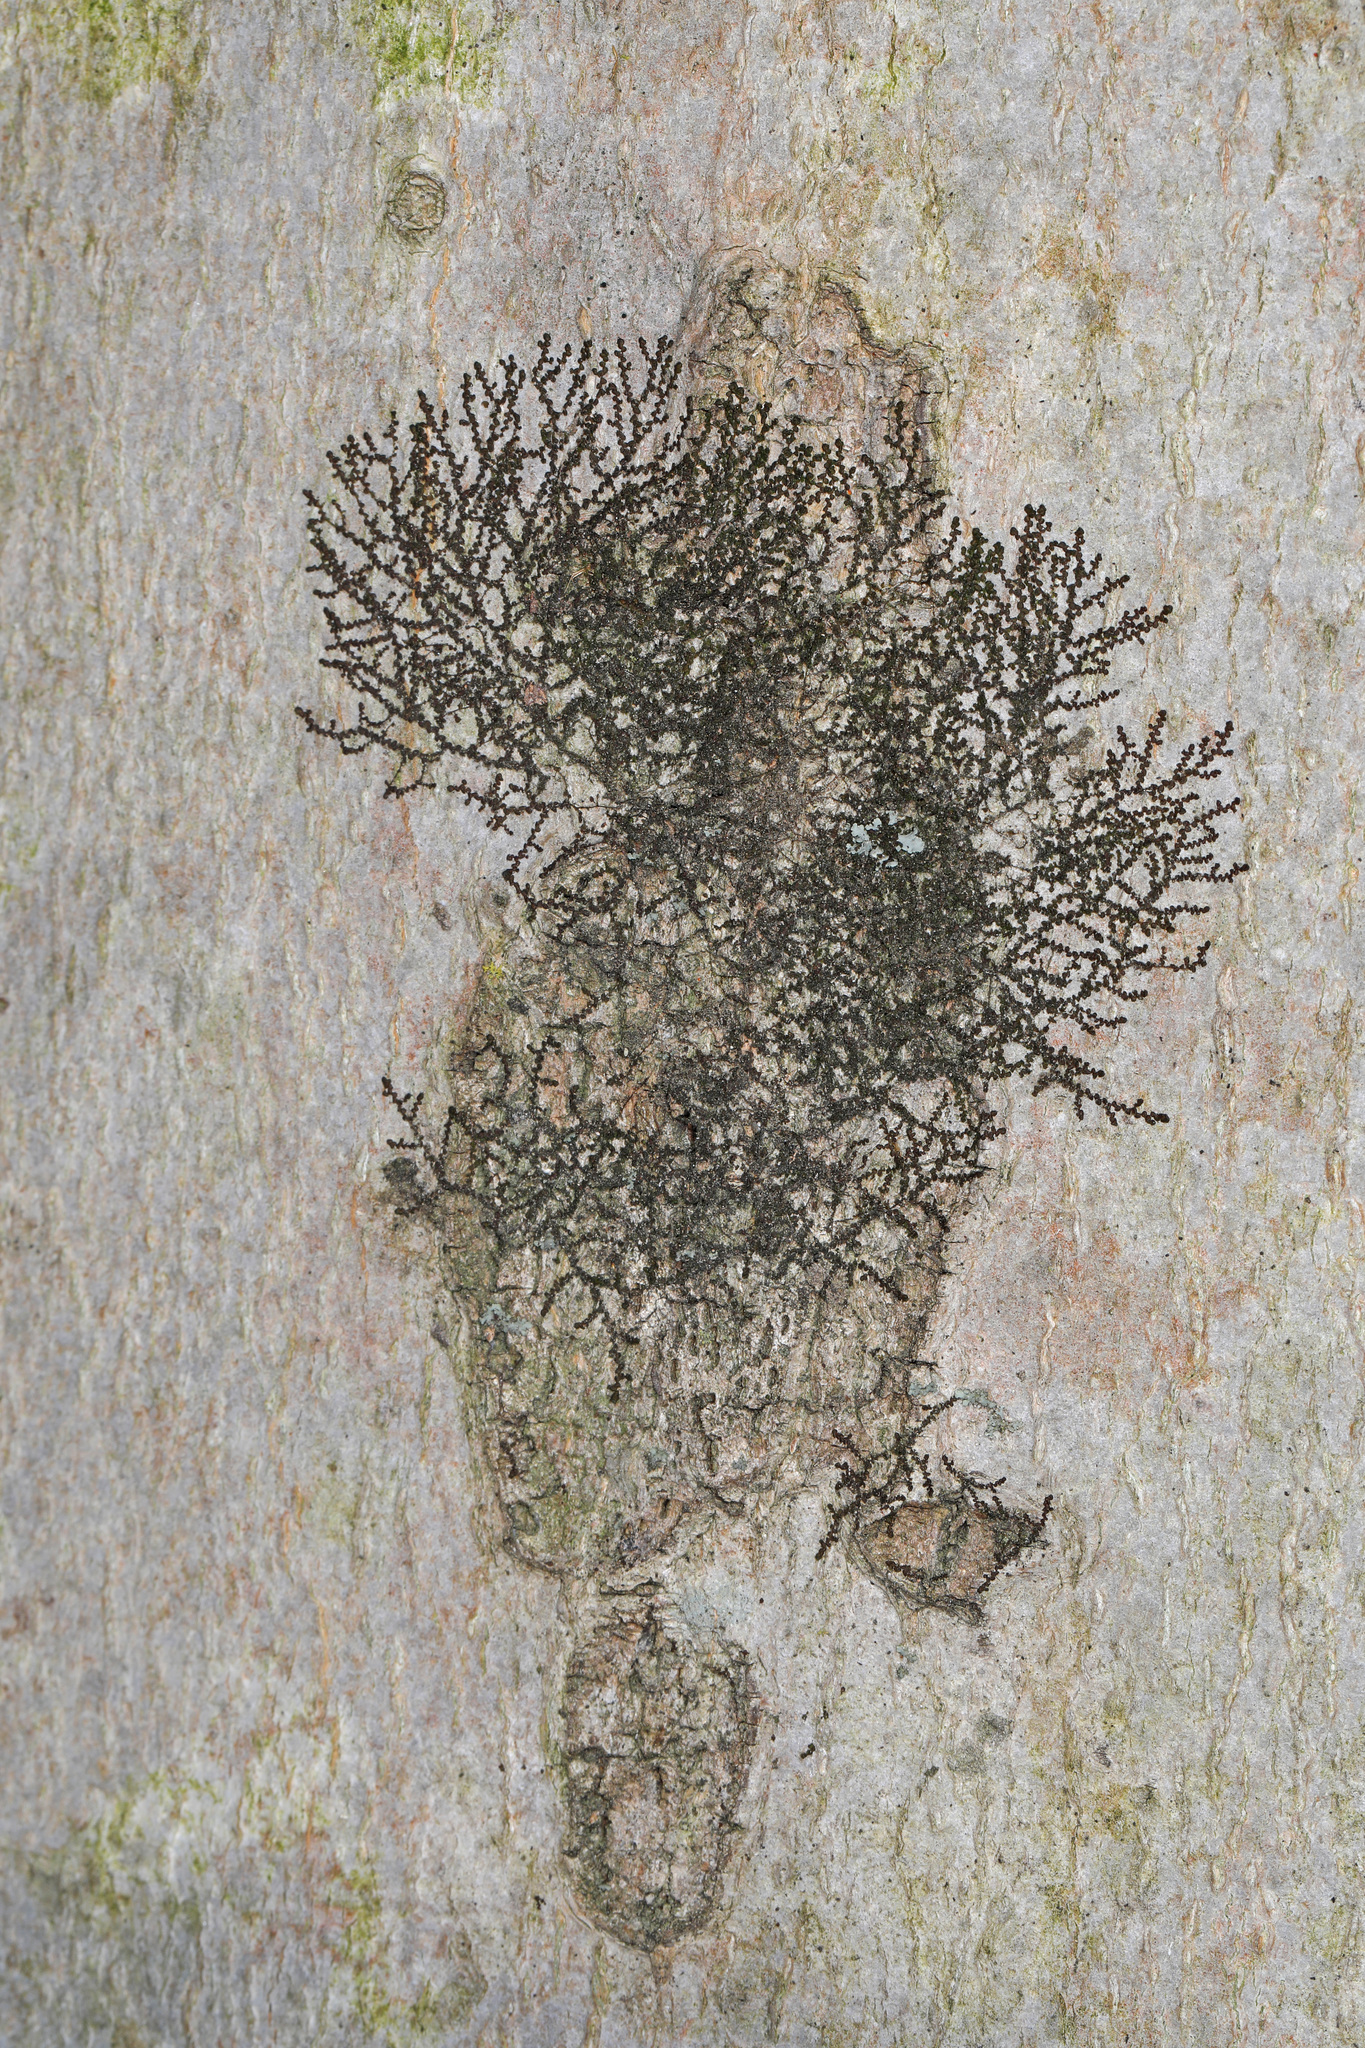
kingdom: Plantae
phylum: Marchantiophyta
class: Jungermanniopsida
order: Porellales
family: Frullaniaceae
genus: Frullania
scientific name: Frullania eboracensis
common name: New york scalewort
